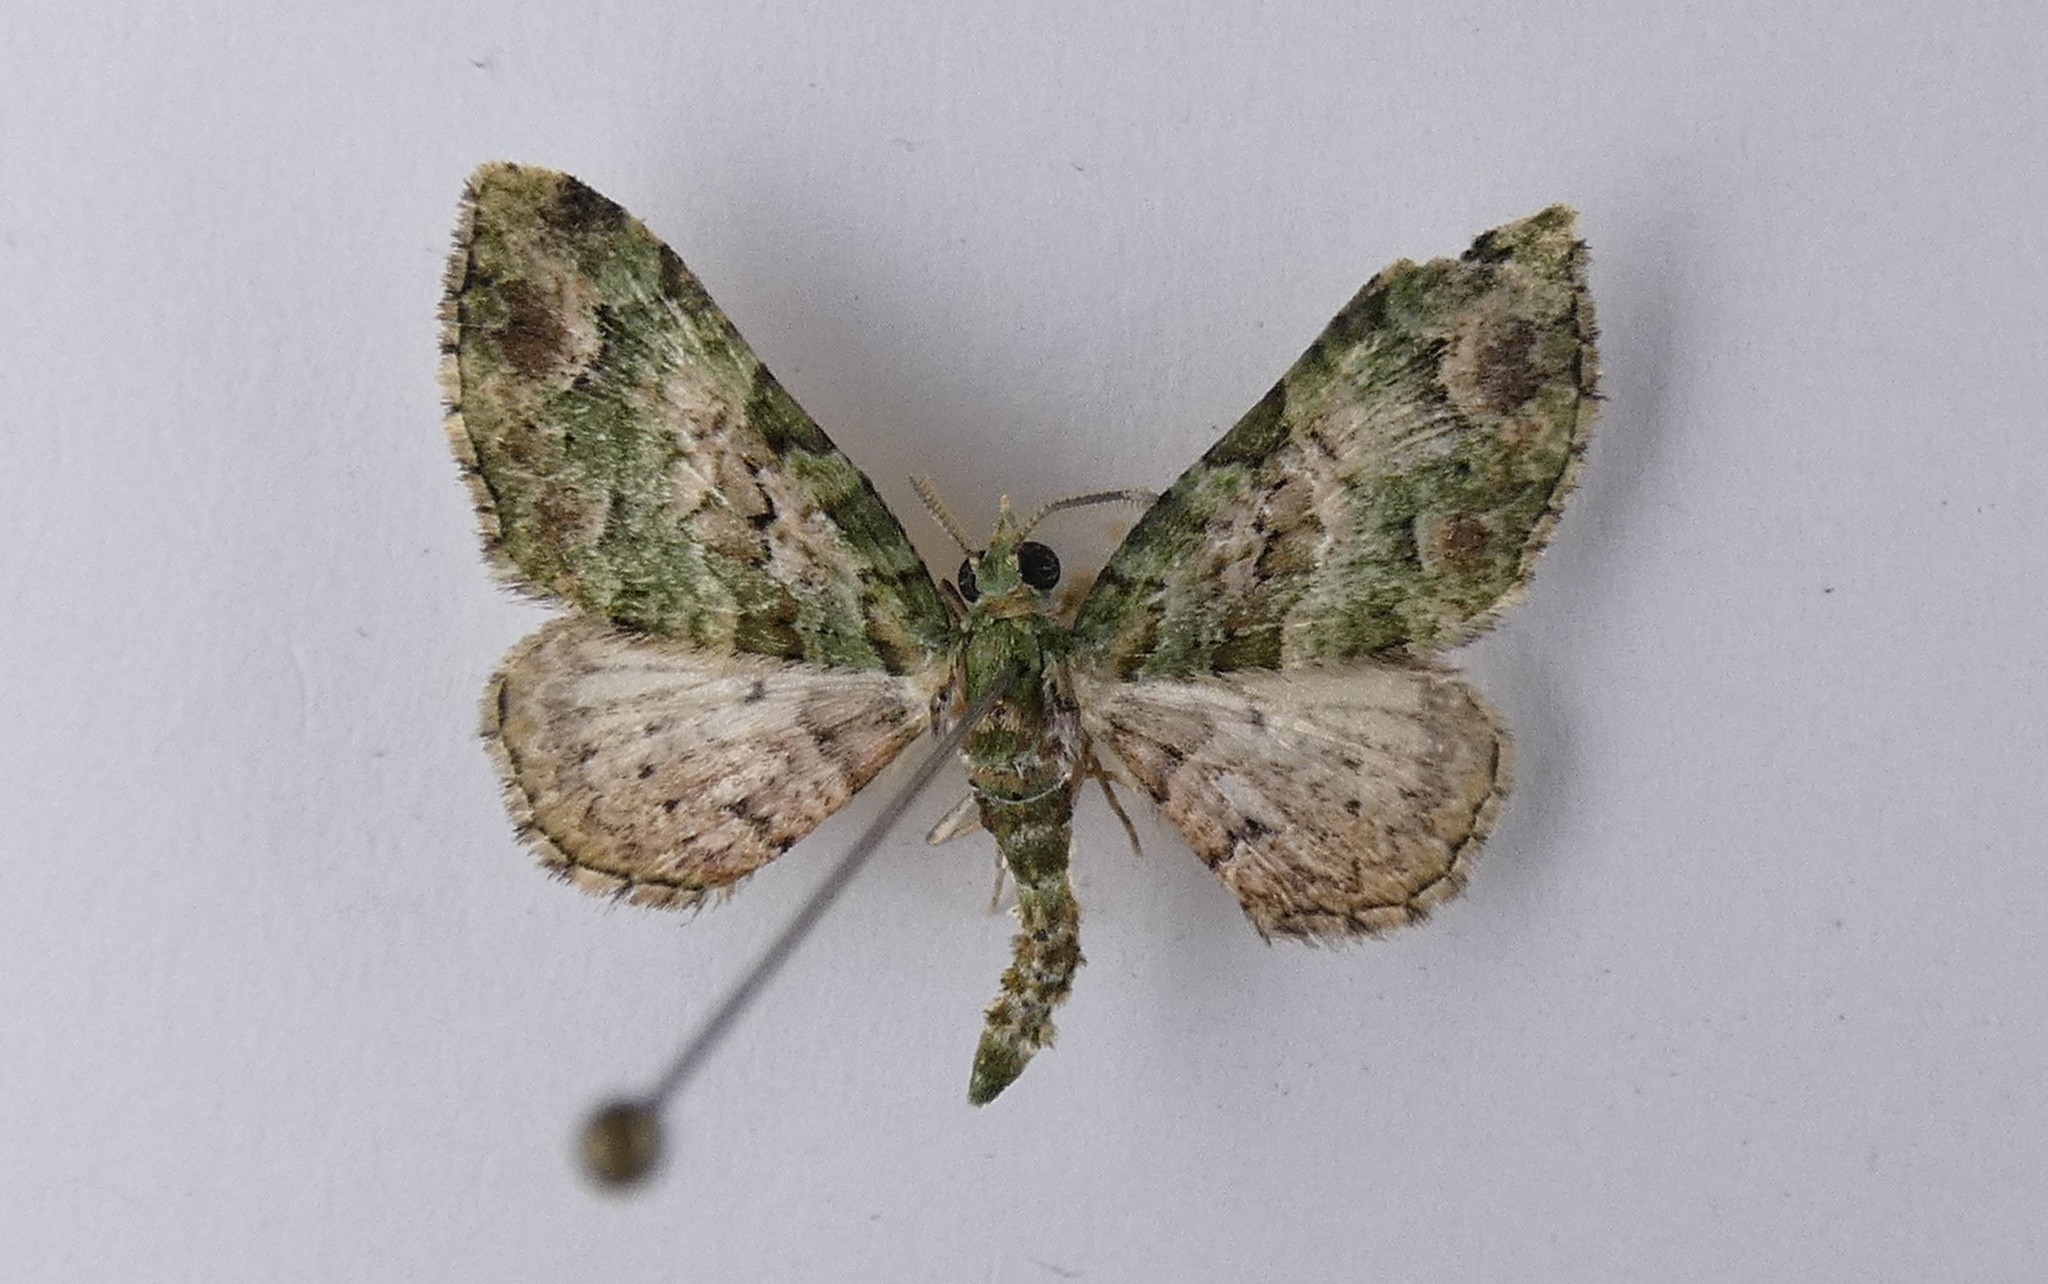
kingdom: Animalia
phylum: Arthropoda
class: Insecta
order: Lepidoptera
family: Geometridae
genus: Pasiphila
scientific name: Pasiphila semochlora
